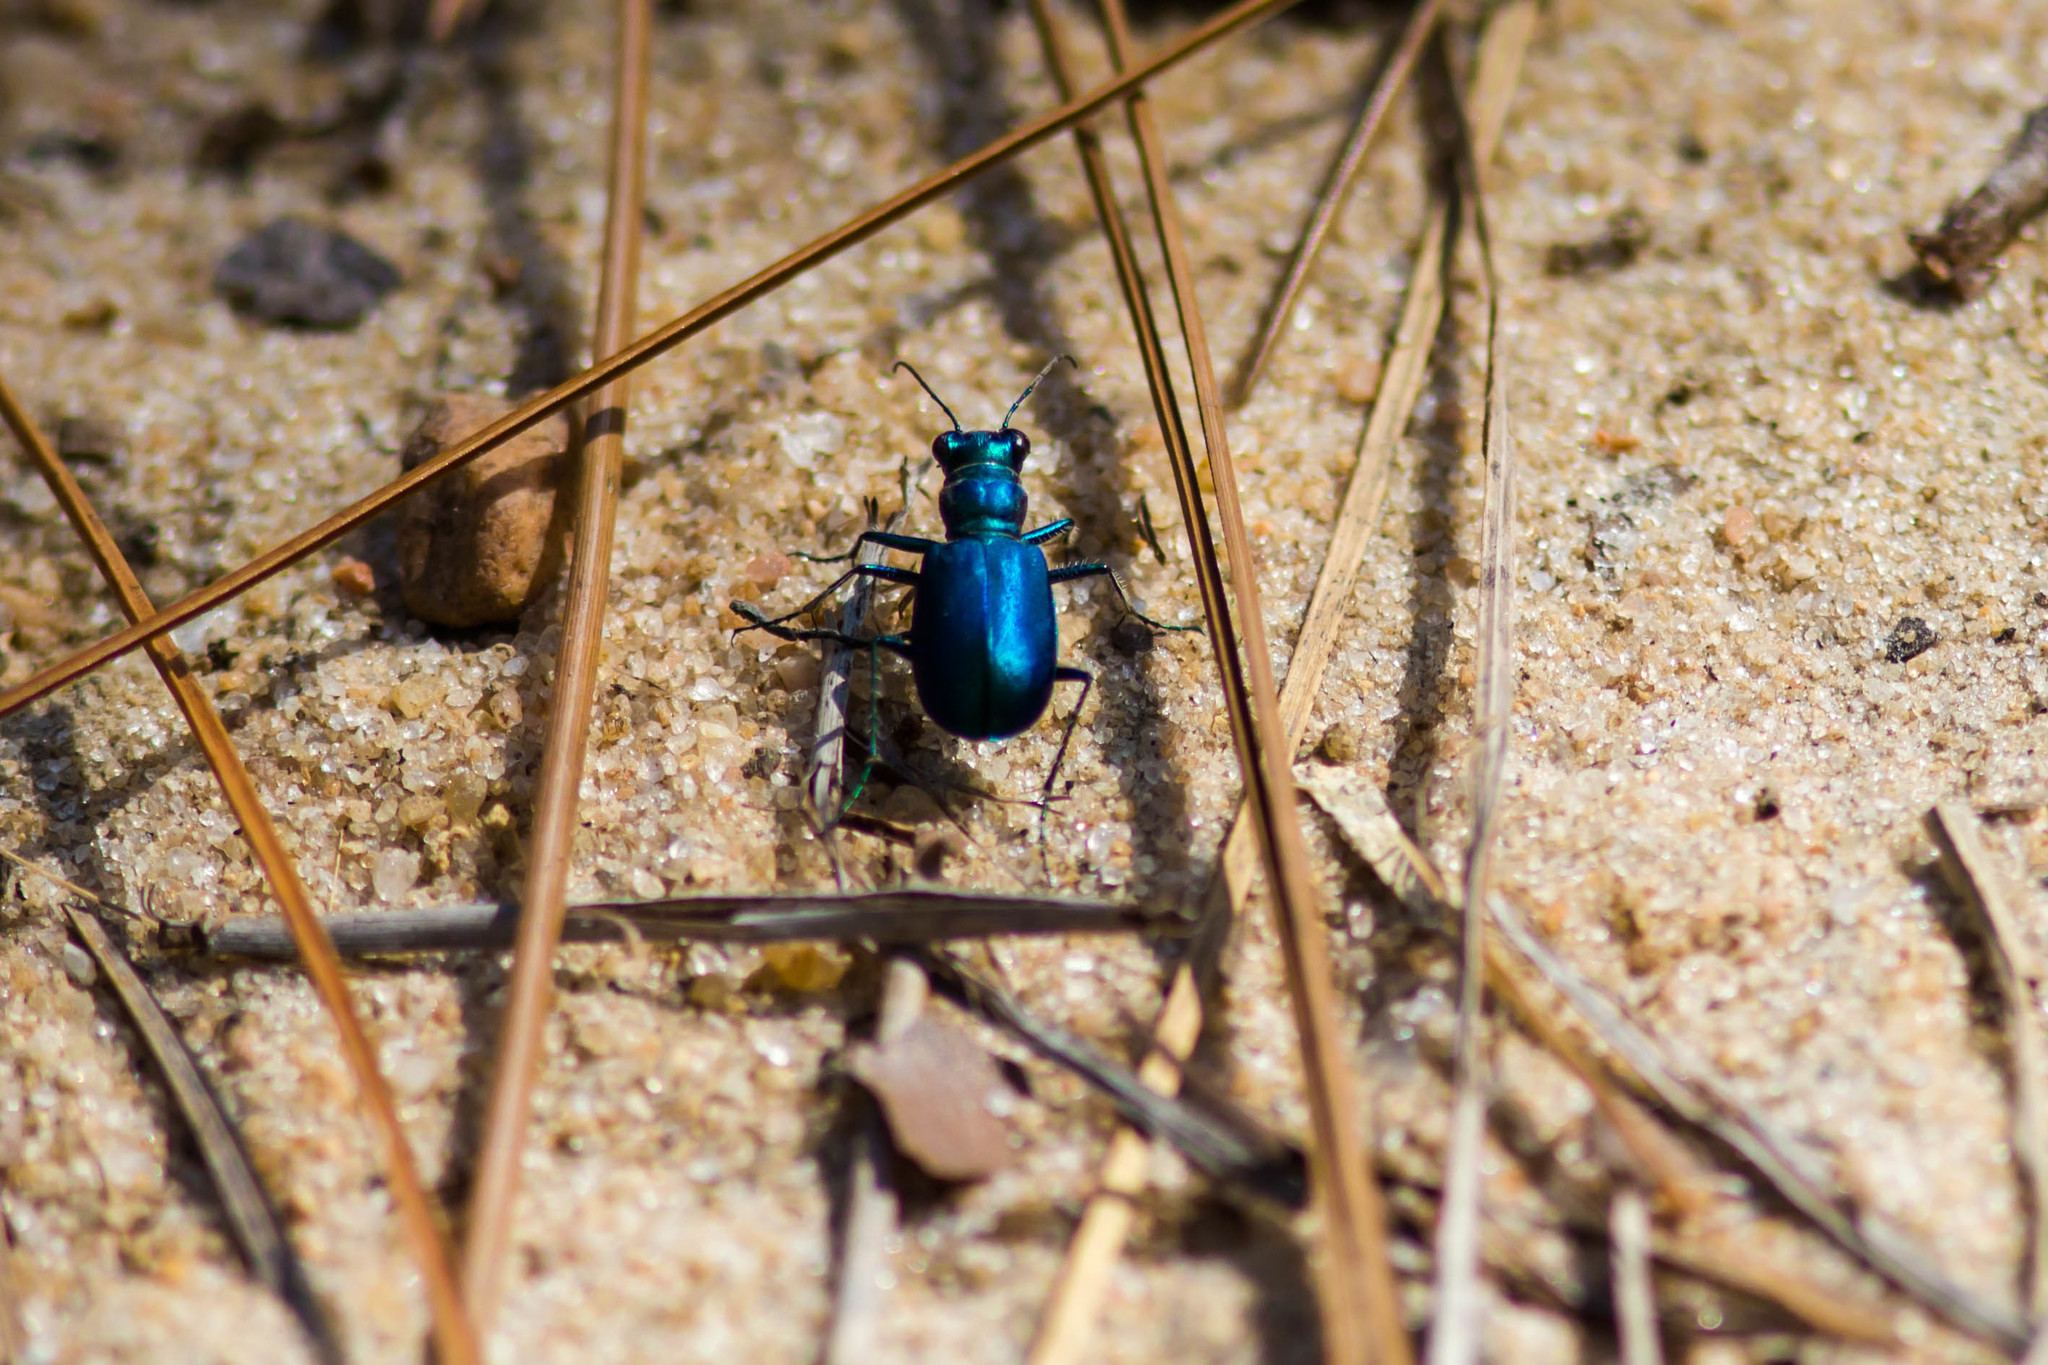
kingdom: Animalia
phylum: Arthropoda
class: Insecta
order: Coleoptera
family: Carabidae
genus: Cicindela
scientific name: Cicindela scutellaris
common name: Festive tiger beetle
